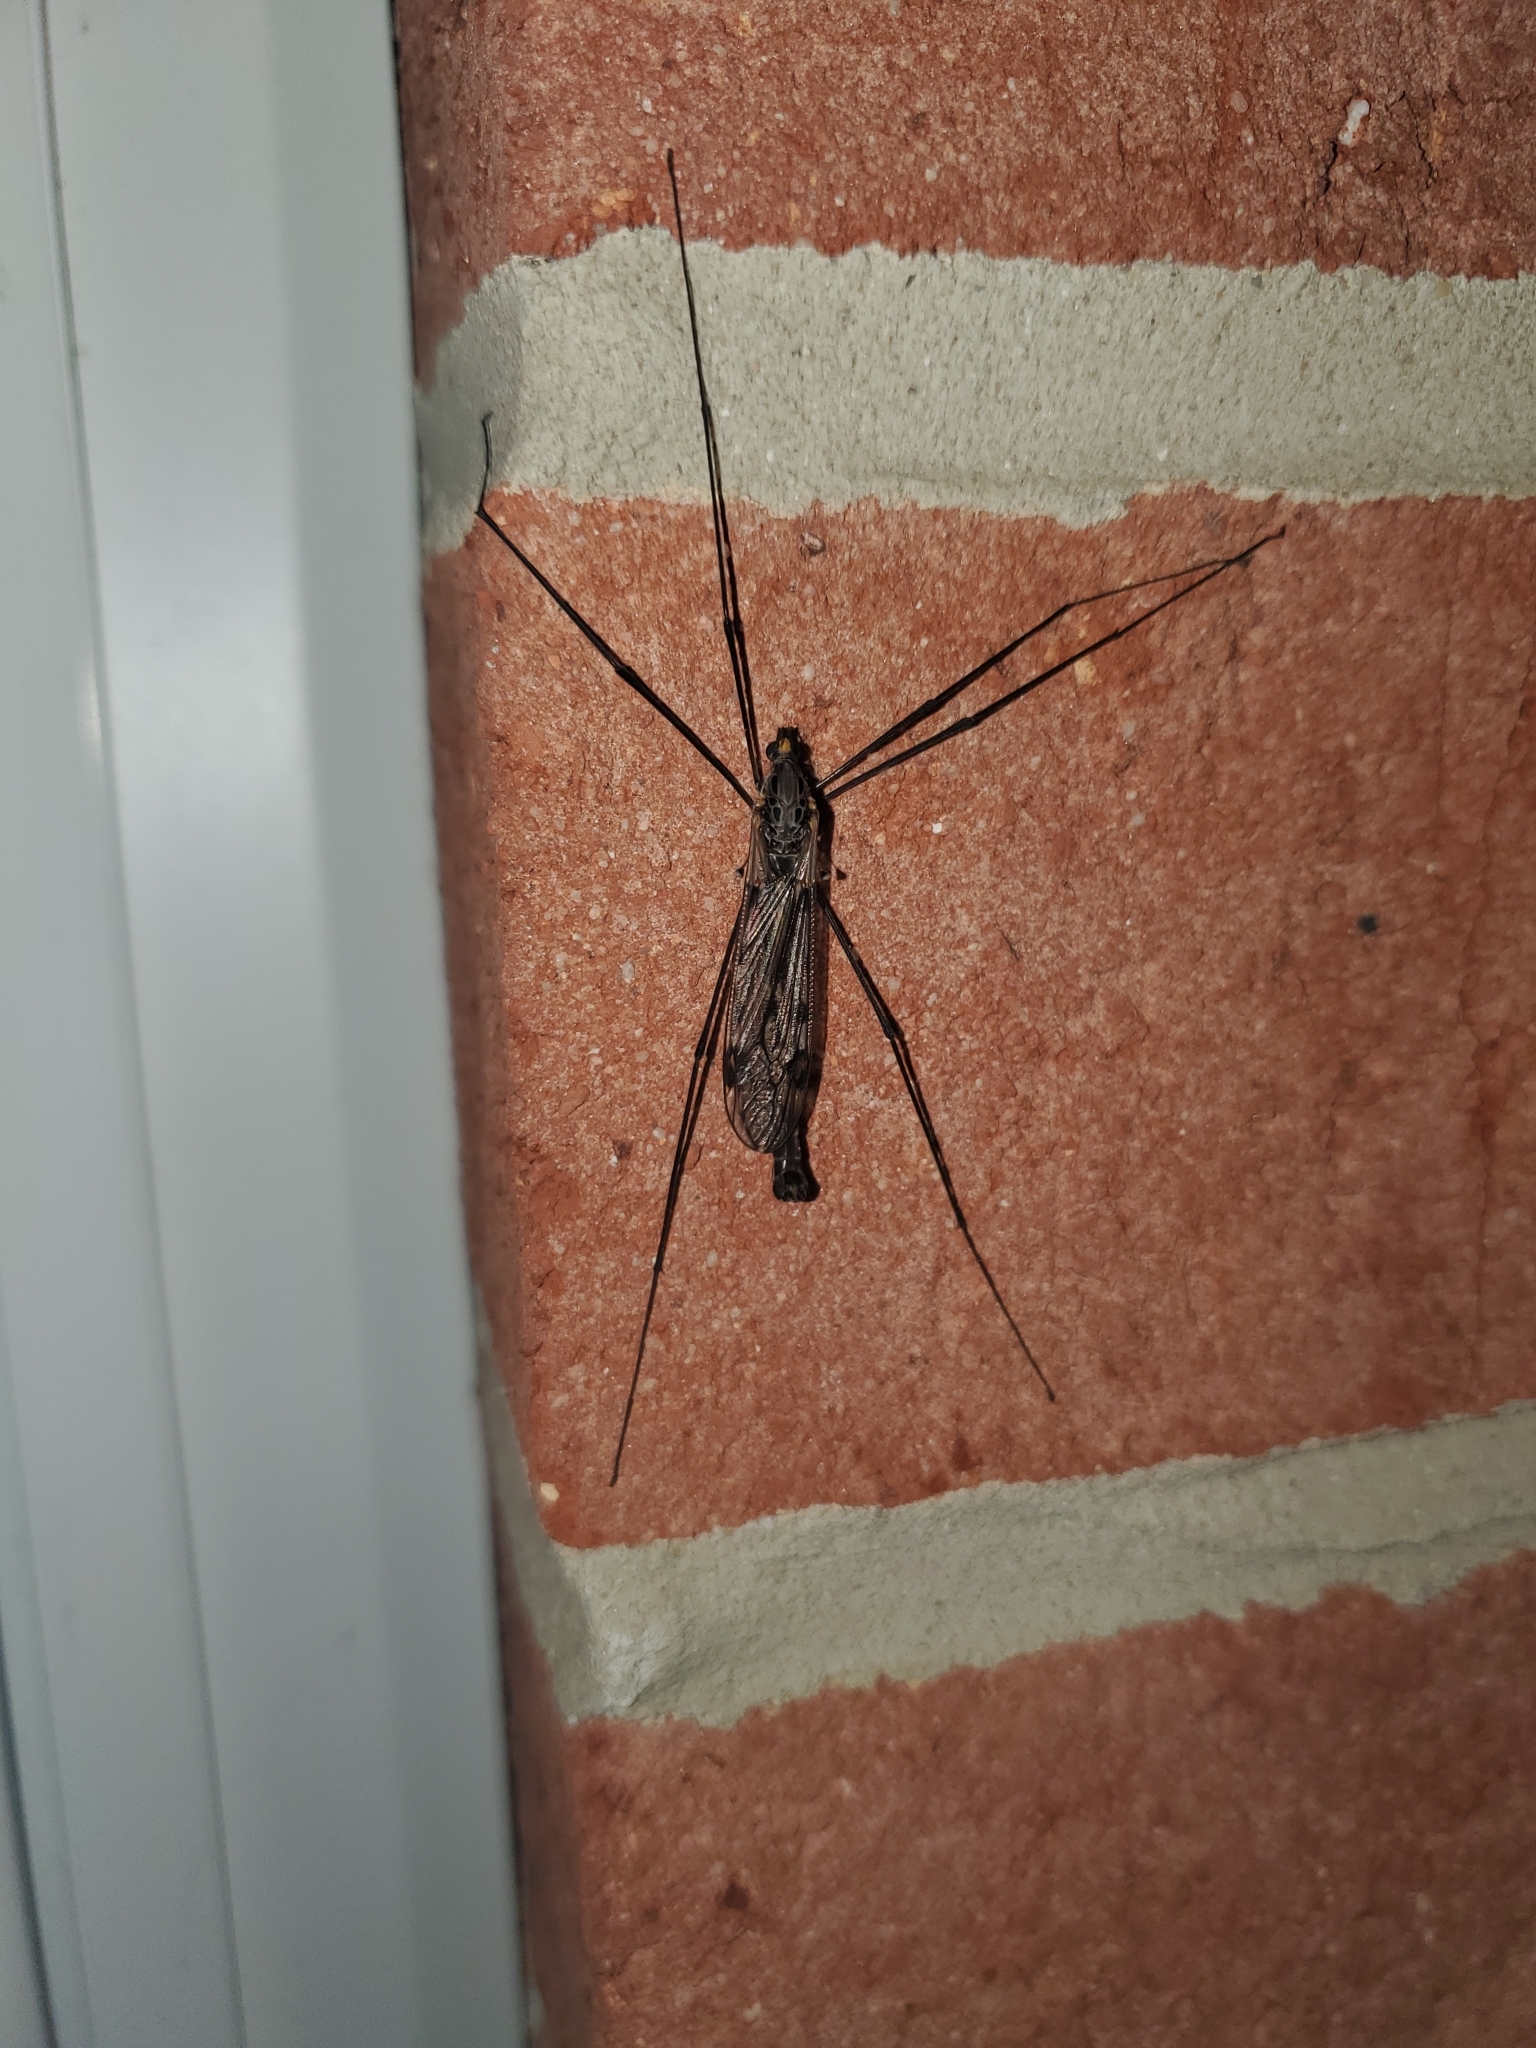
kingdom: Animalia
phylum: Arthropoda
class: Insecta
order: Diptera
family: Tipulidae
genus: Tipula
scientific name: Tipula metacomet
